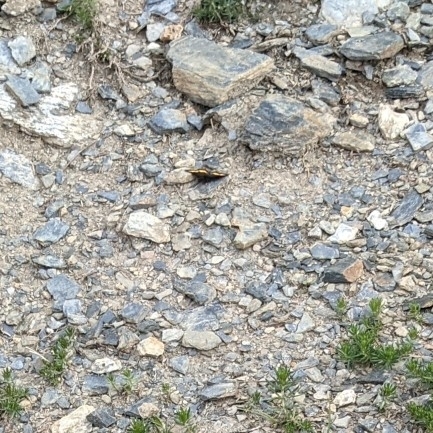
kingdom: Animalia
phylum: Arthropoda
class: Insecta
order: Lepidoptera
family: Geometridae
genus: Psodos
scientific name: Psodos quadrifaria
